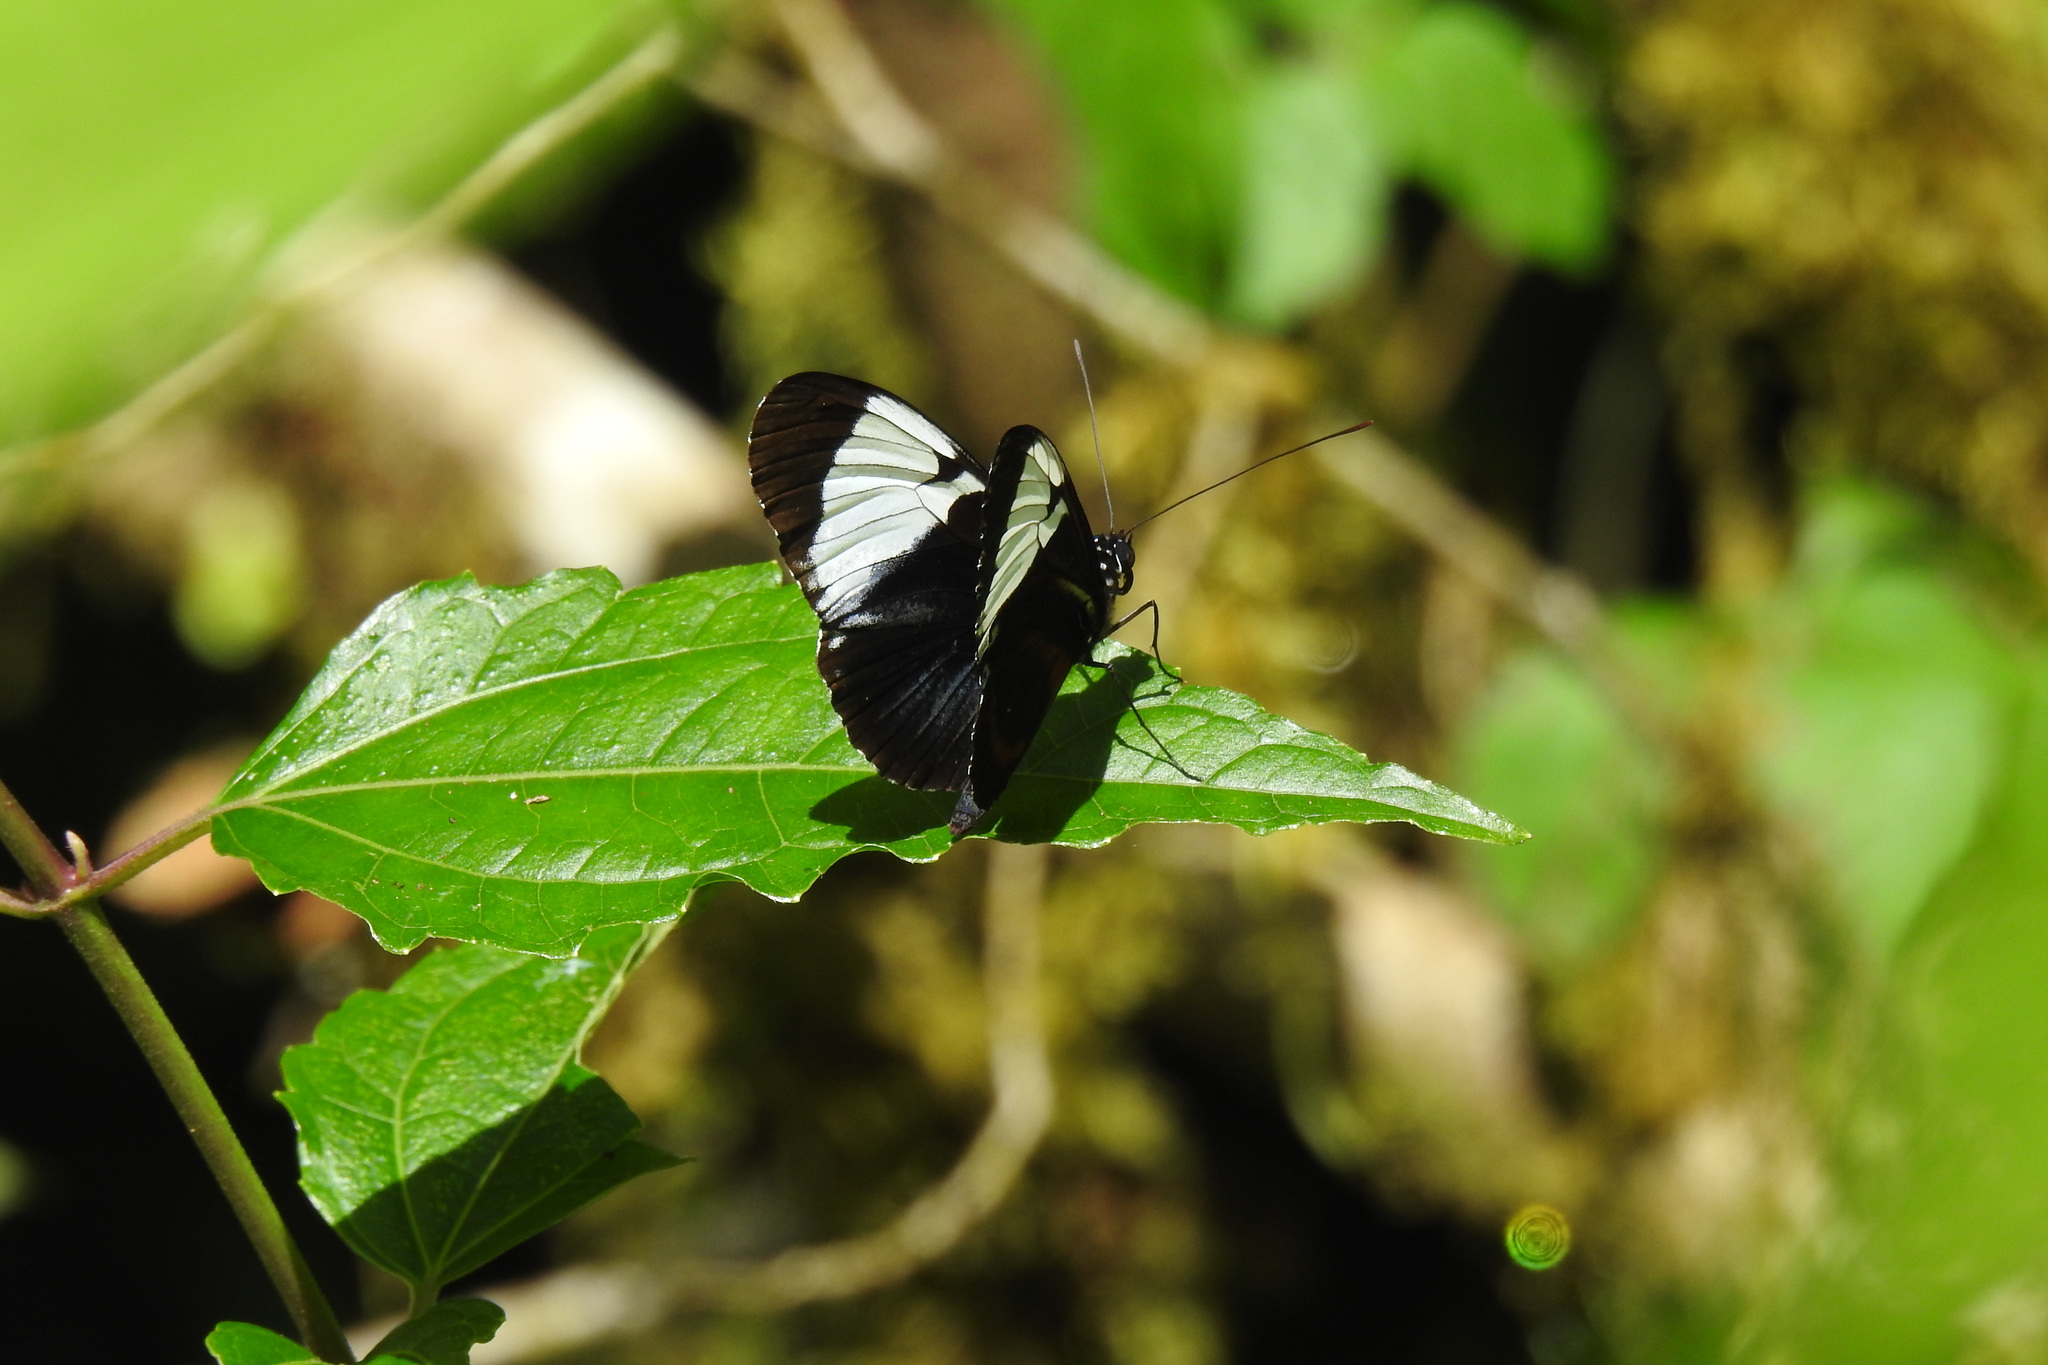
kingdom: Animalia
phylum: Arthropoda
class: Insecta
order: Lepidoptera
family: Nymphalidae
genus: Heliconius
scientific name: Heliconius cydno
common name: Cydno longwing
